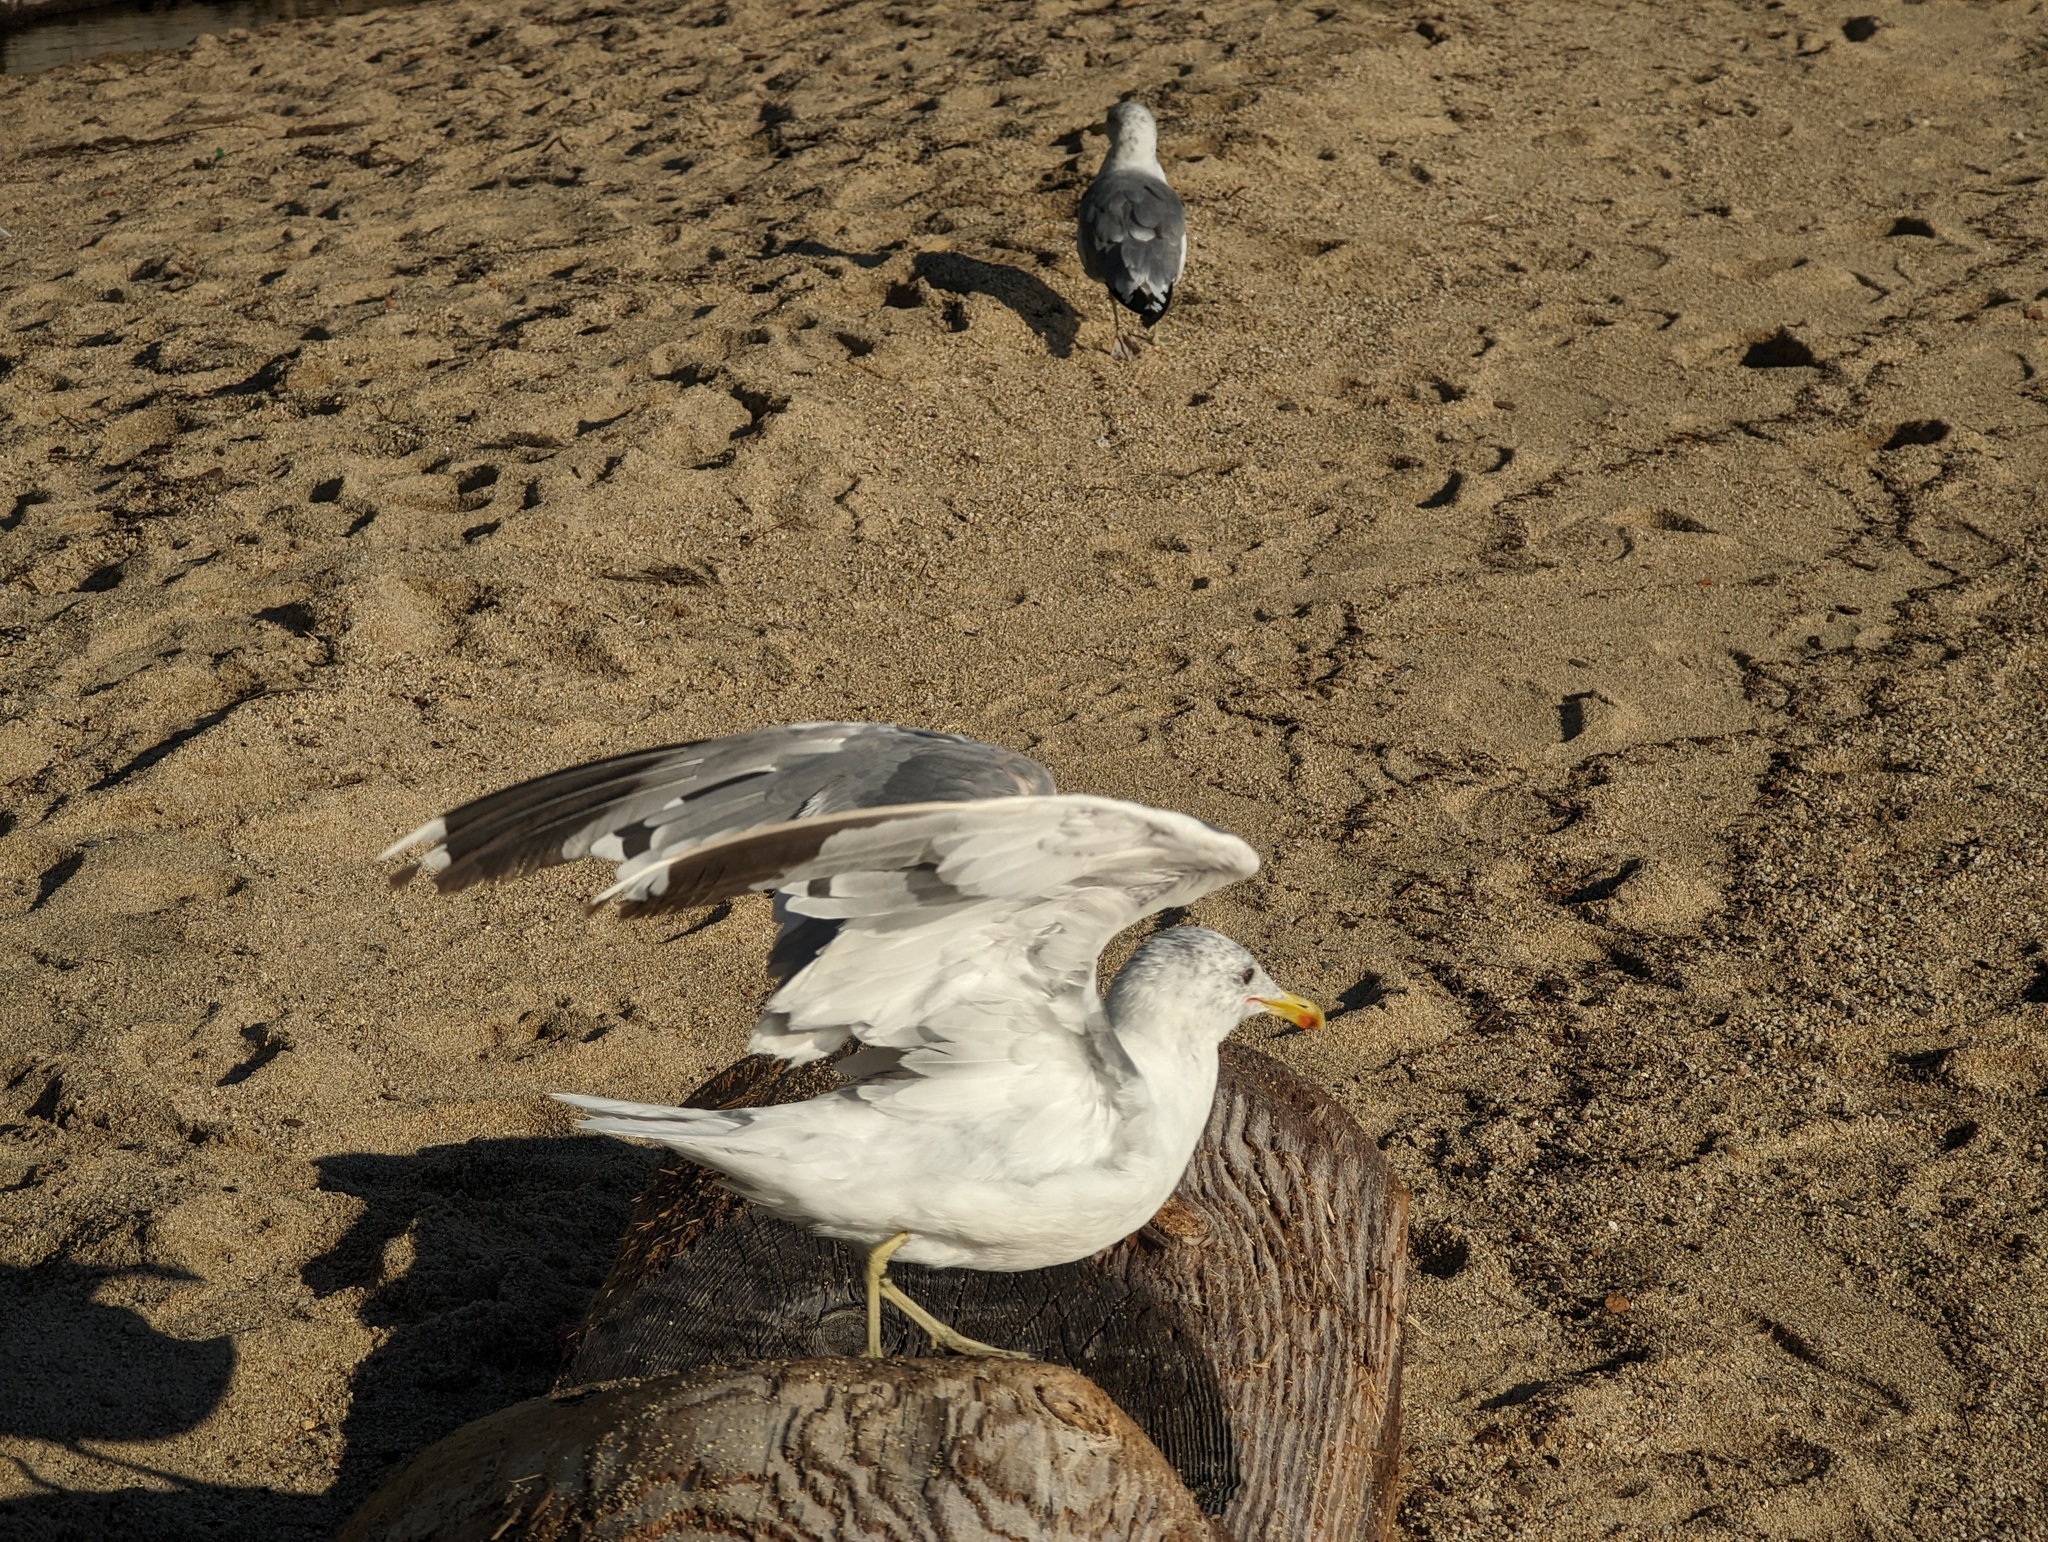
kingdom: Animalia
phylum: Chordata
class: Aves
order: Charadriiformes
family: Laridae
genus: Larus
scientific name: Larus californicus
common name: California gull
